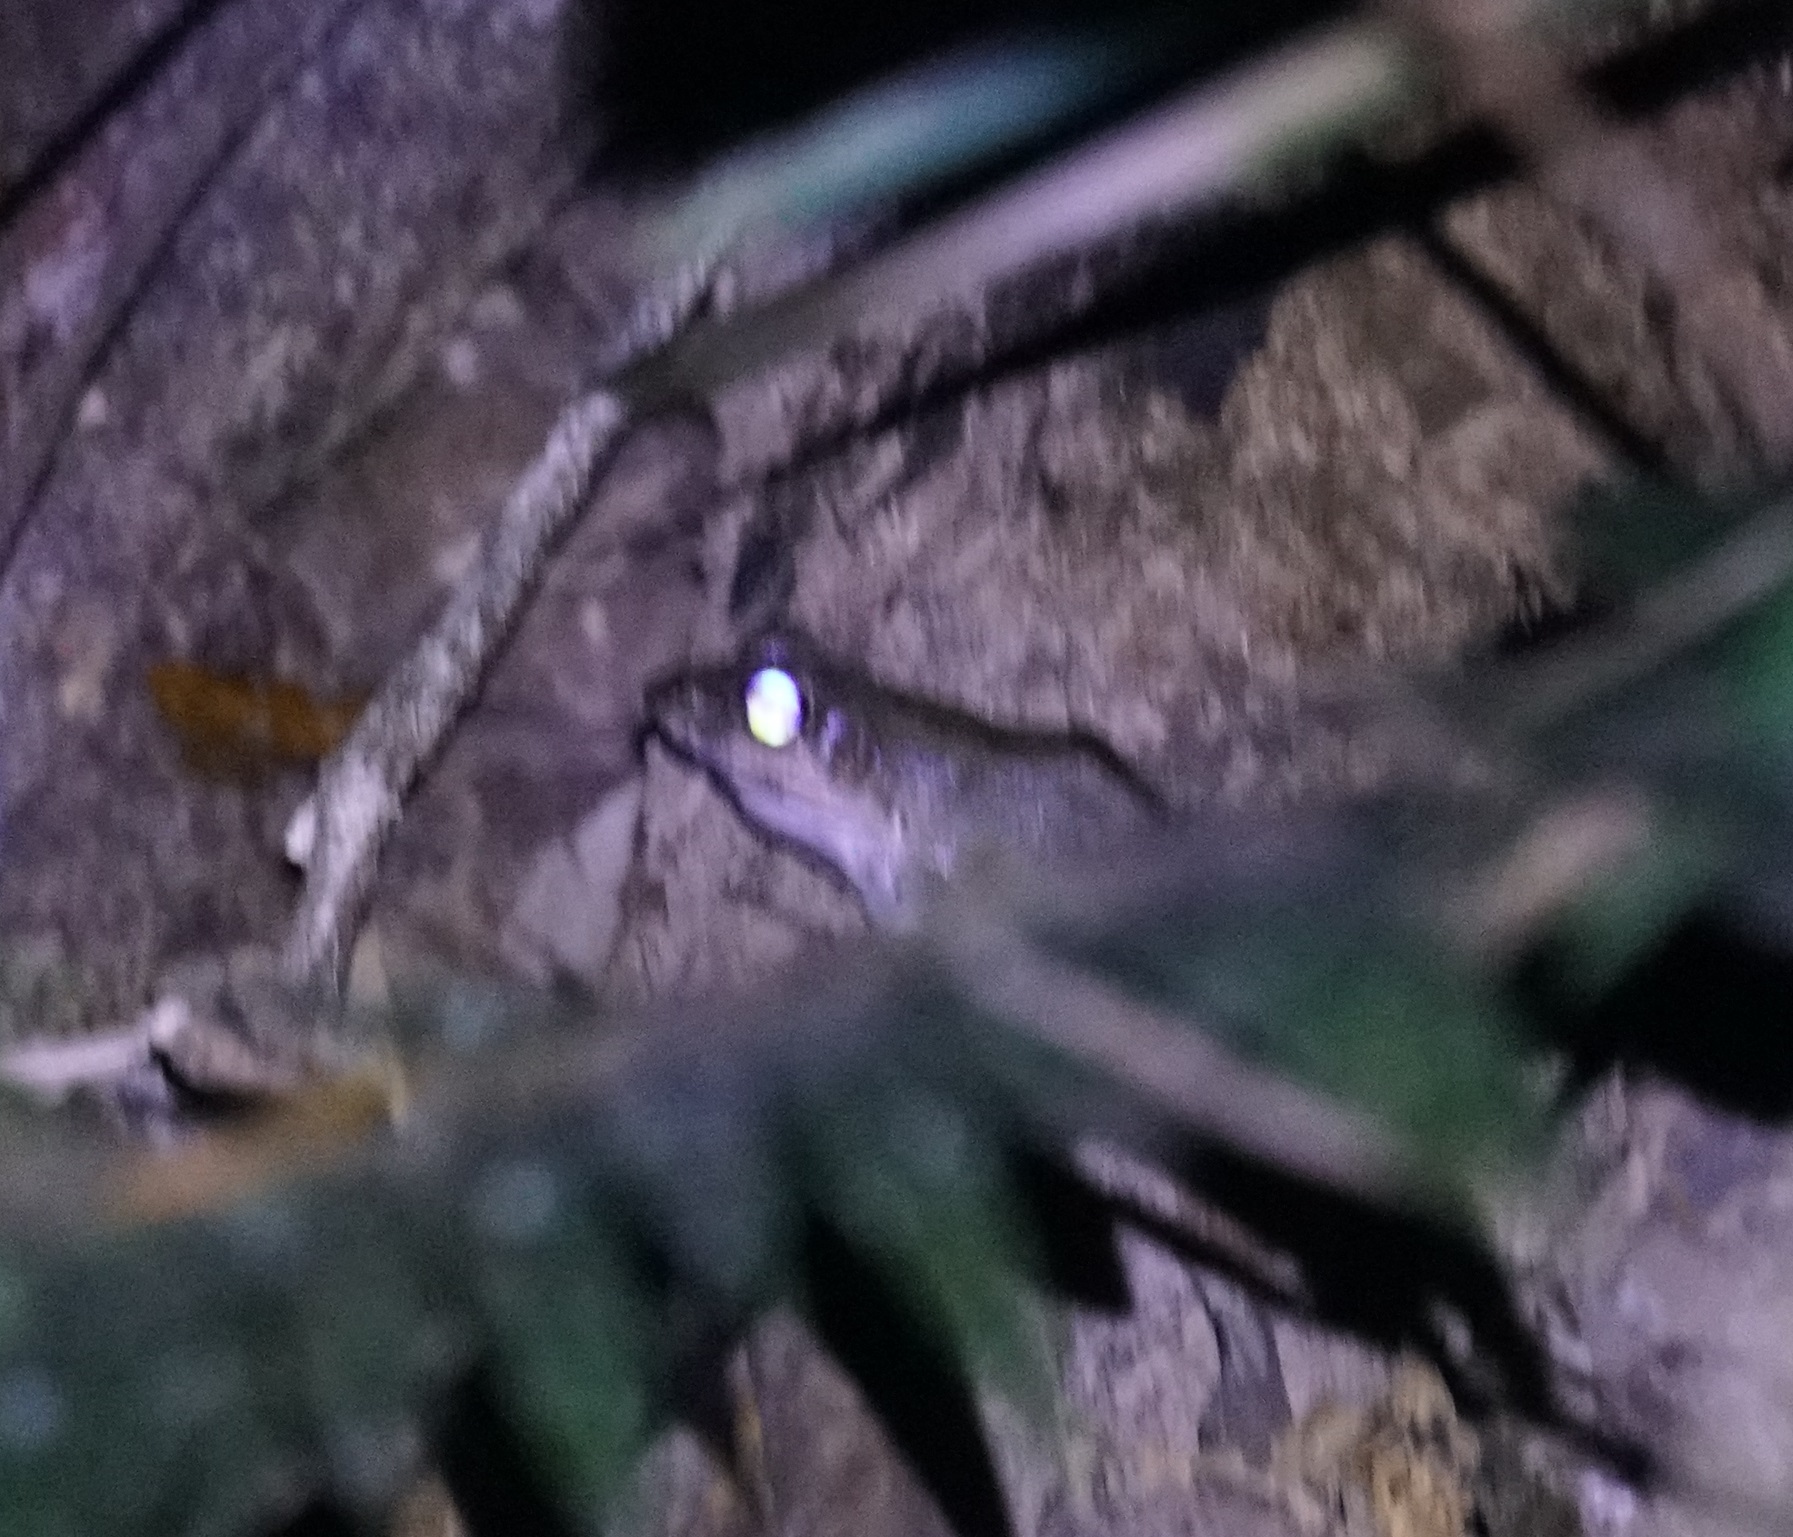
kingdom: Animalia
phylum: Chordata
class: Amphibia
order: Anura
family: Ranidae
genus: Papurana
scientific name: Papurana daemeli
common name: Arhem rana
